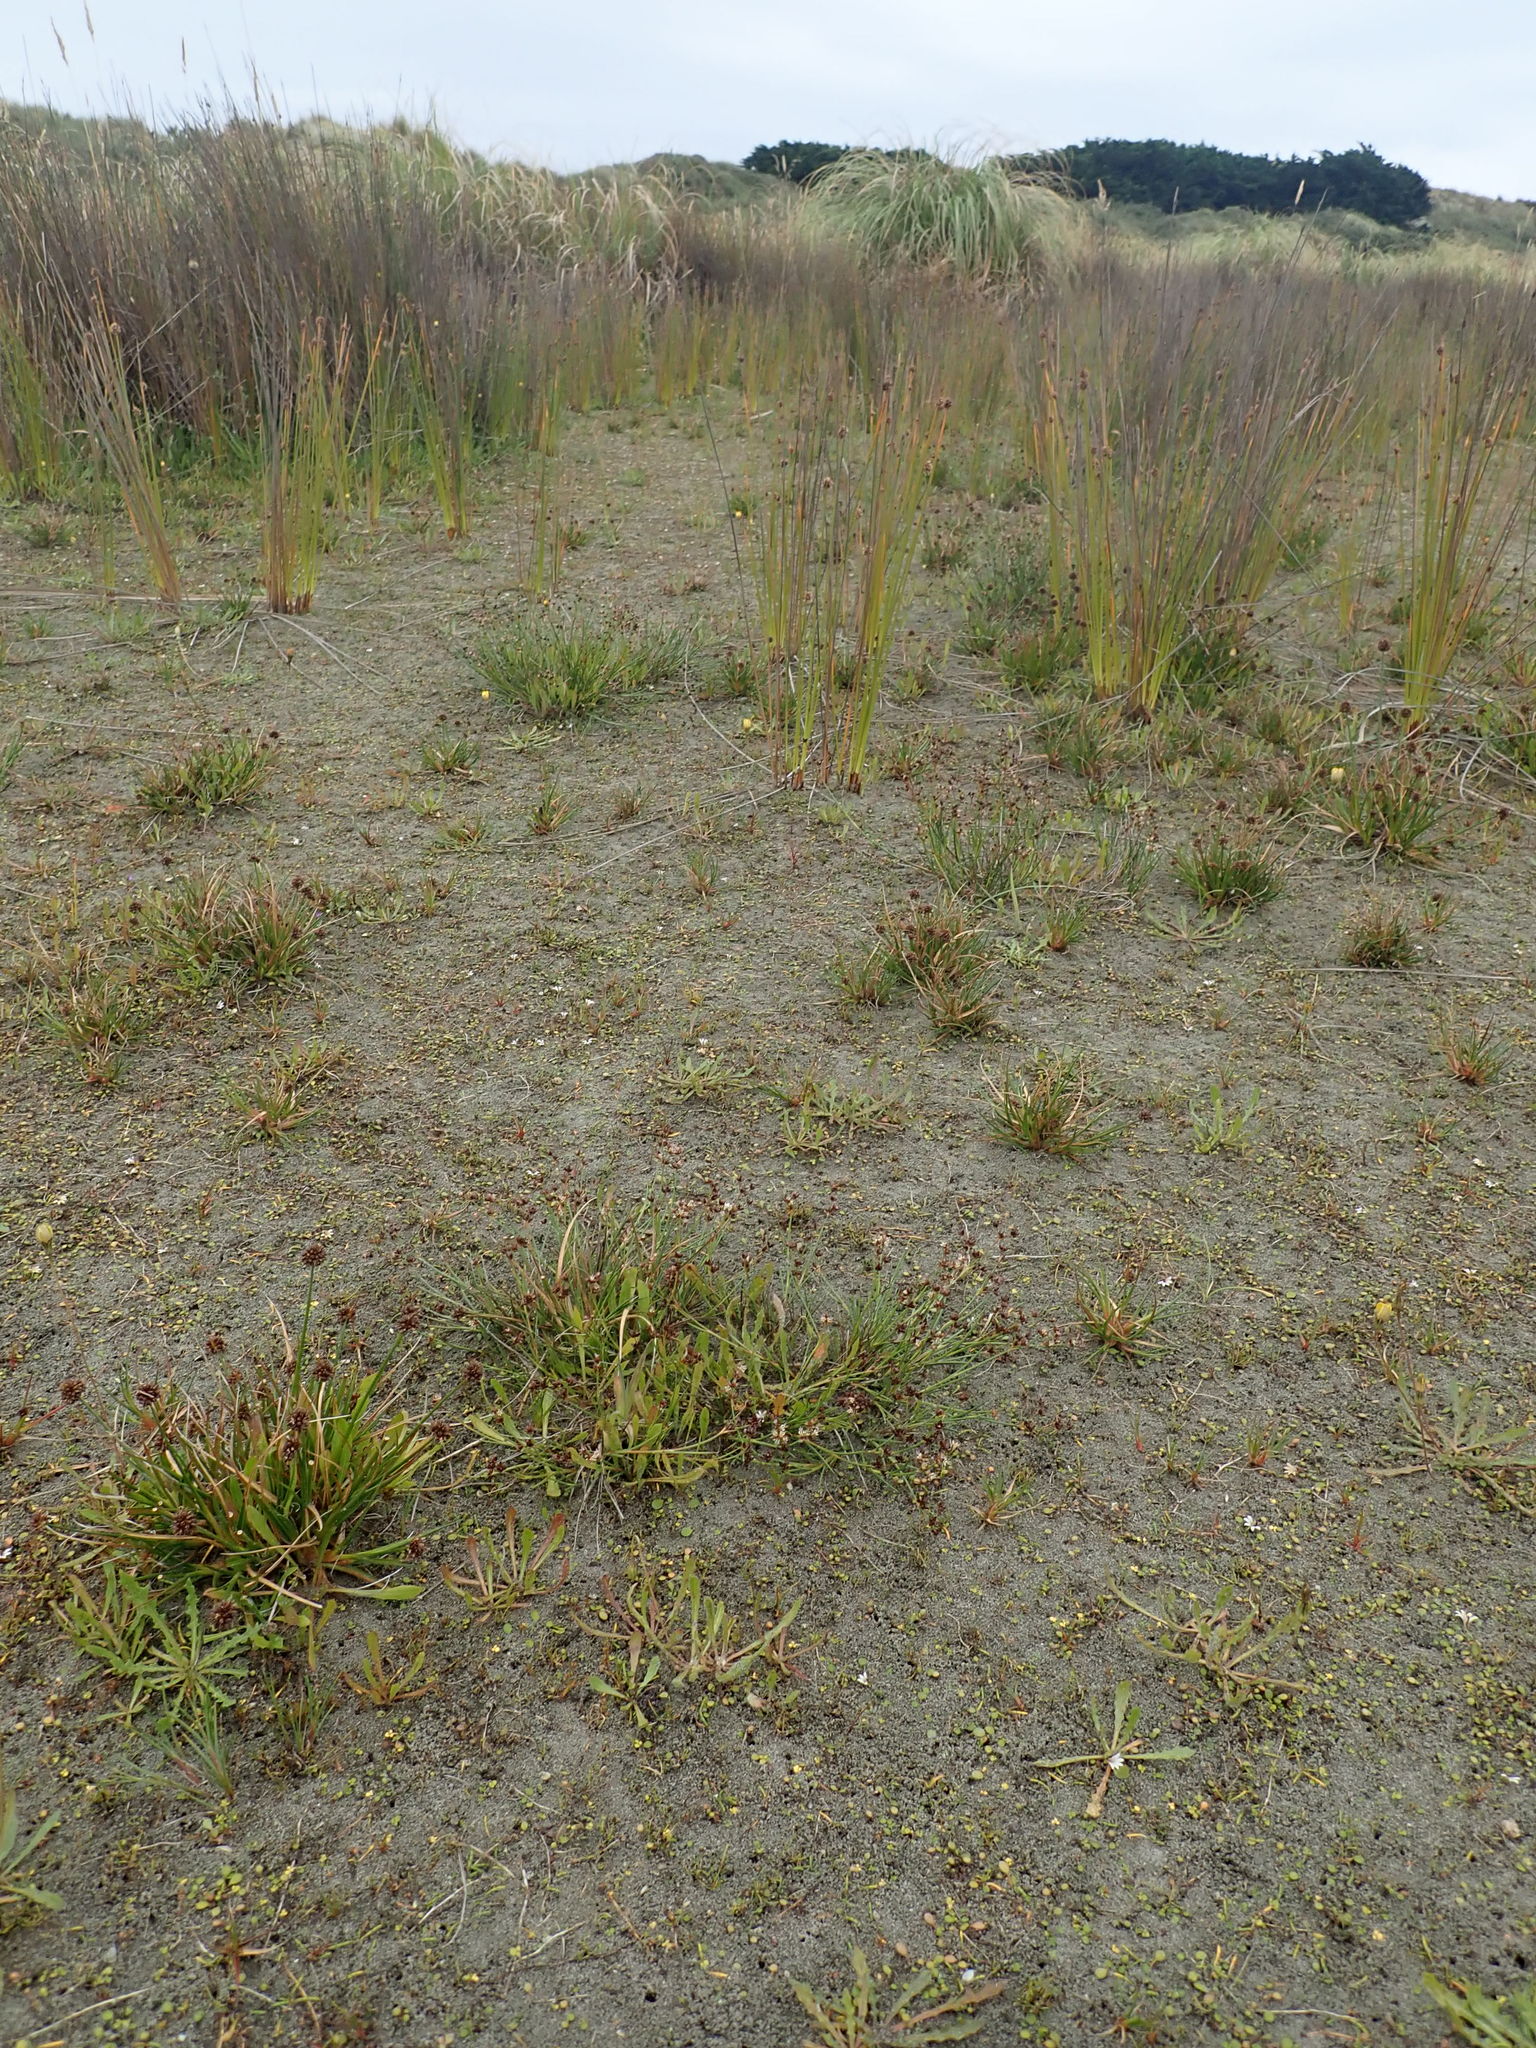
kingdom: Plantae
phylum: Tracheophyta
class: Liliopsida
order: Poales
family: Juncaceae
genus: Juncus
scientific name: Juncus articulatus
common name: Jointed rush
